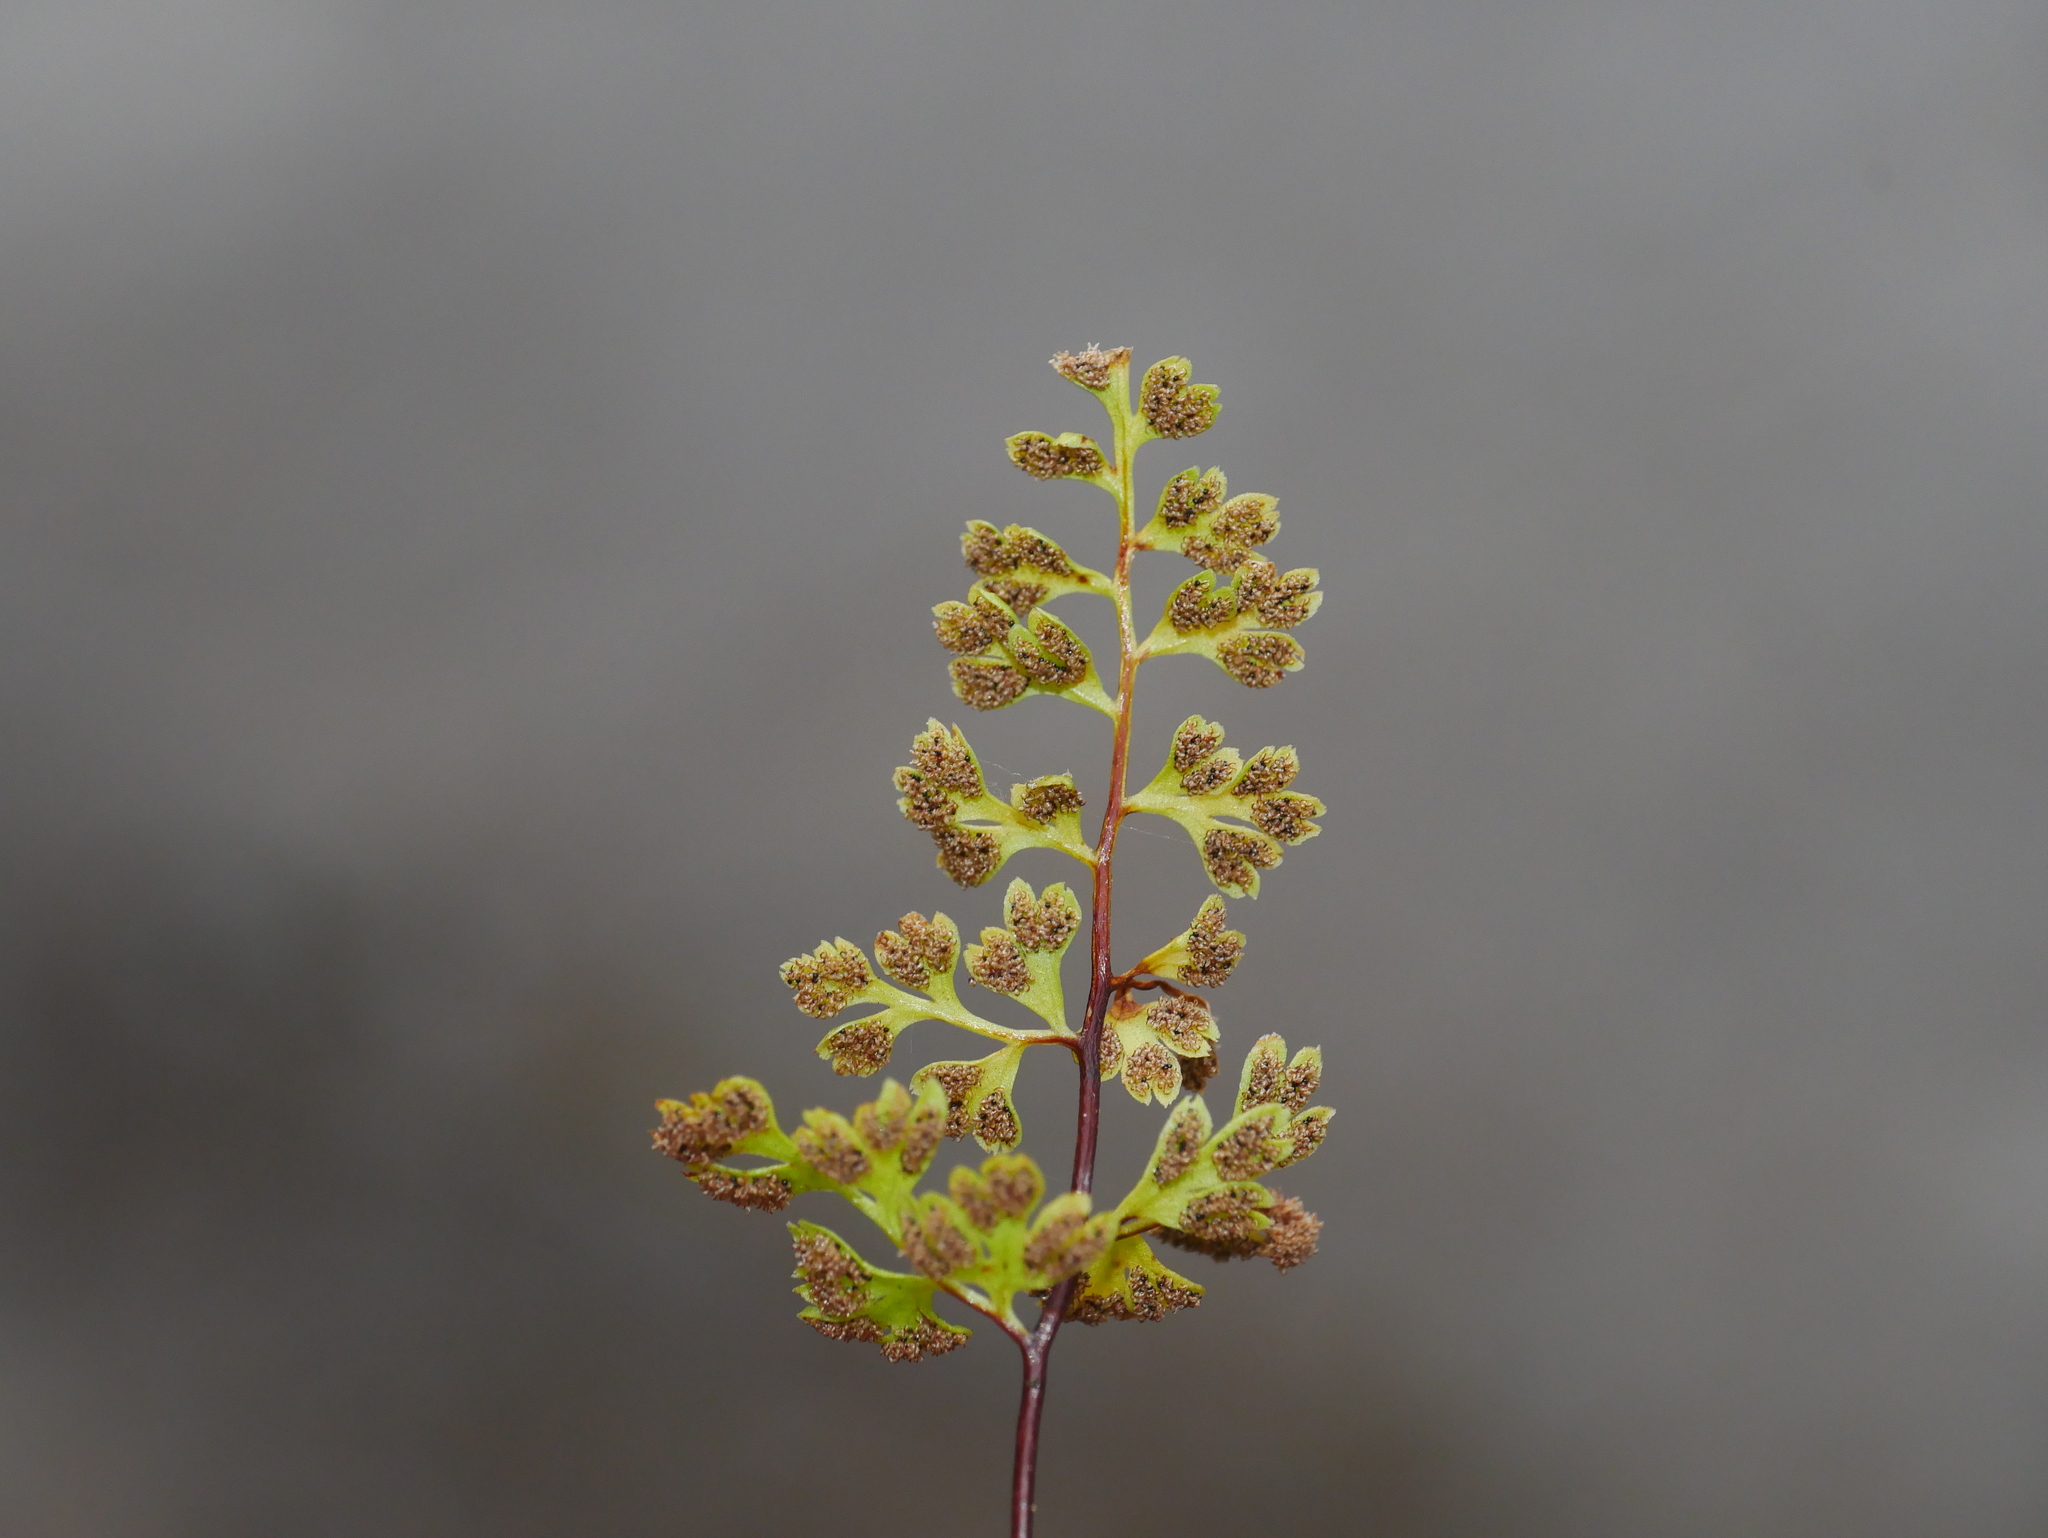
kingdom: Plantae
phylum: Tracheophyta
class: Polypodiopsida
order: Polypodiales
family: Pteridaceae
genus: Anogramma
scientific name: Anogramma leptophylla
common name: Jersey fern
